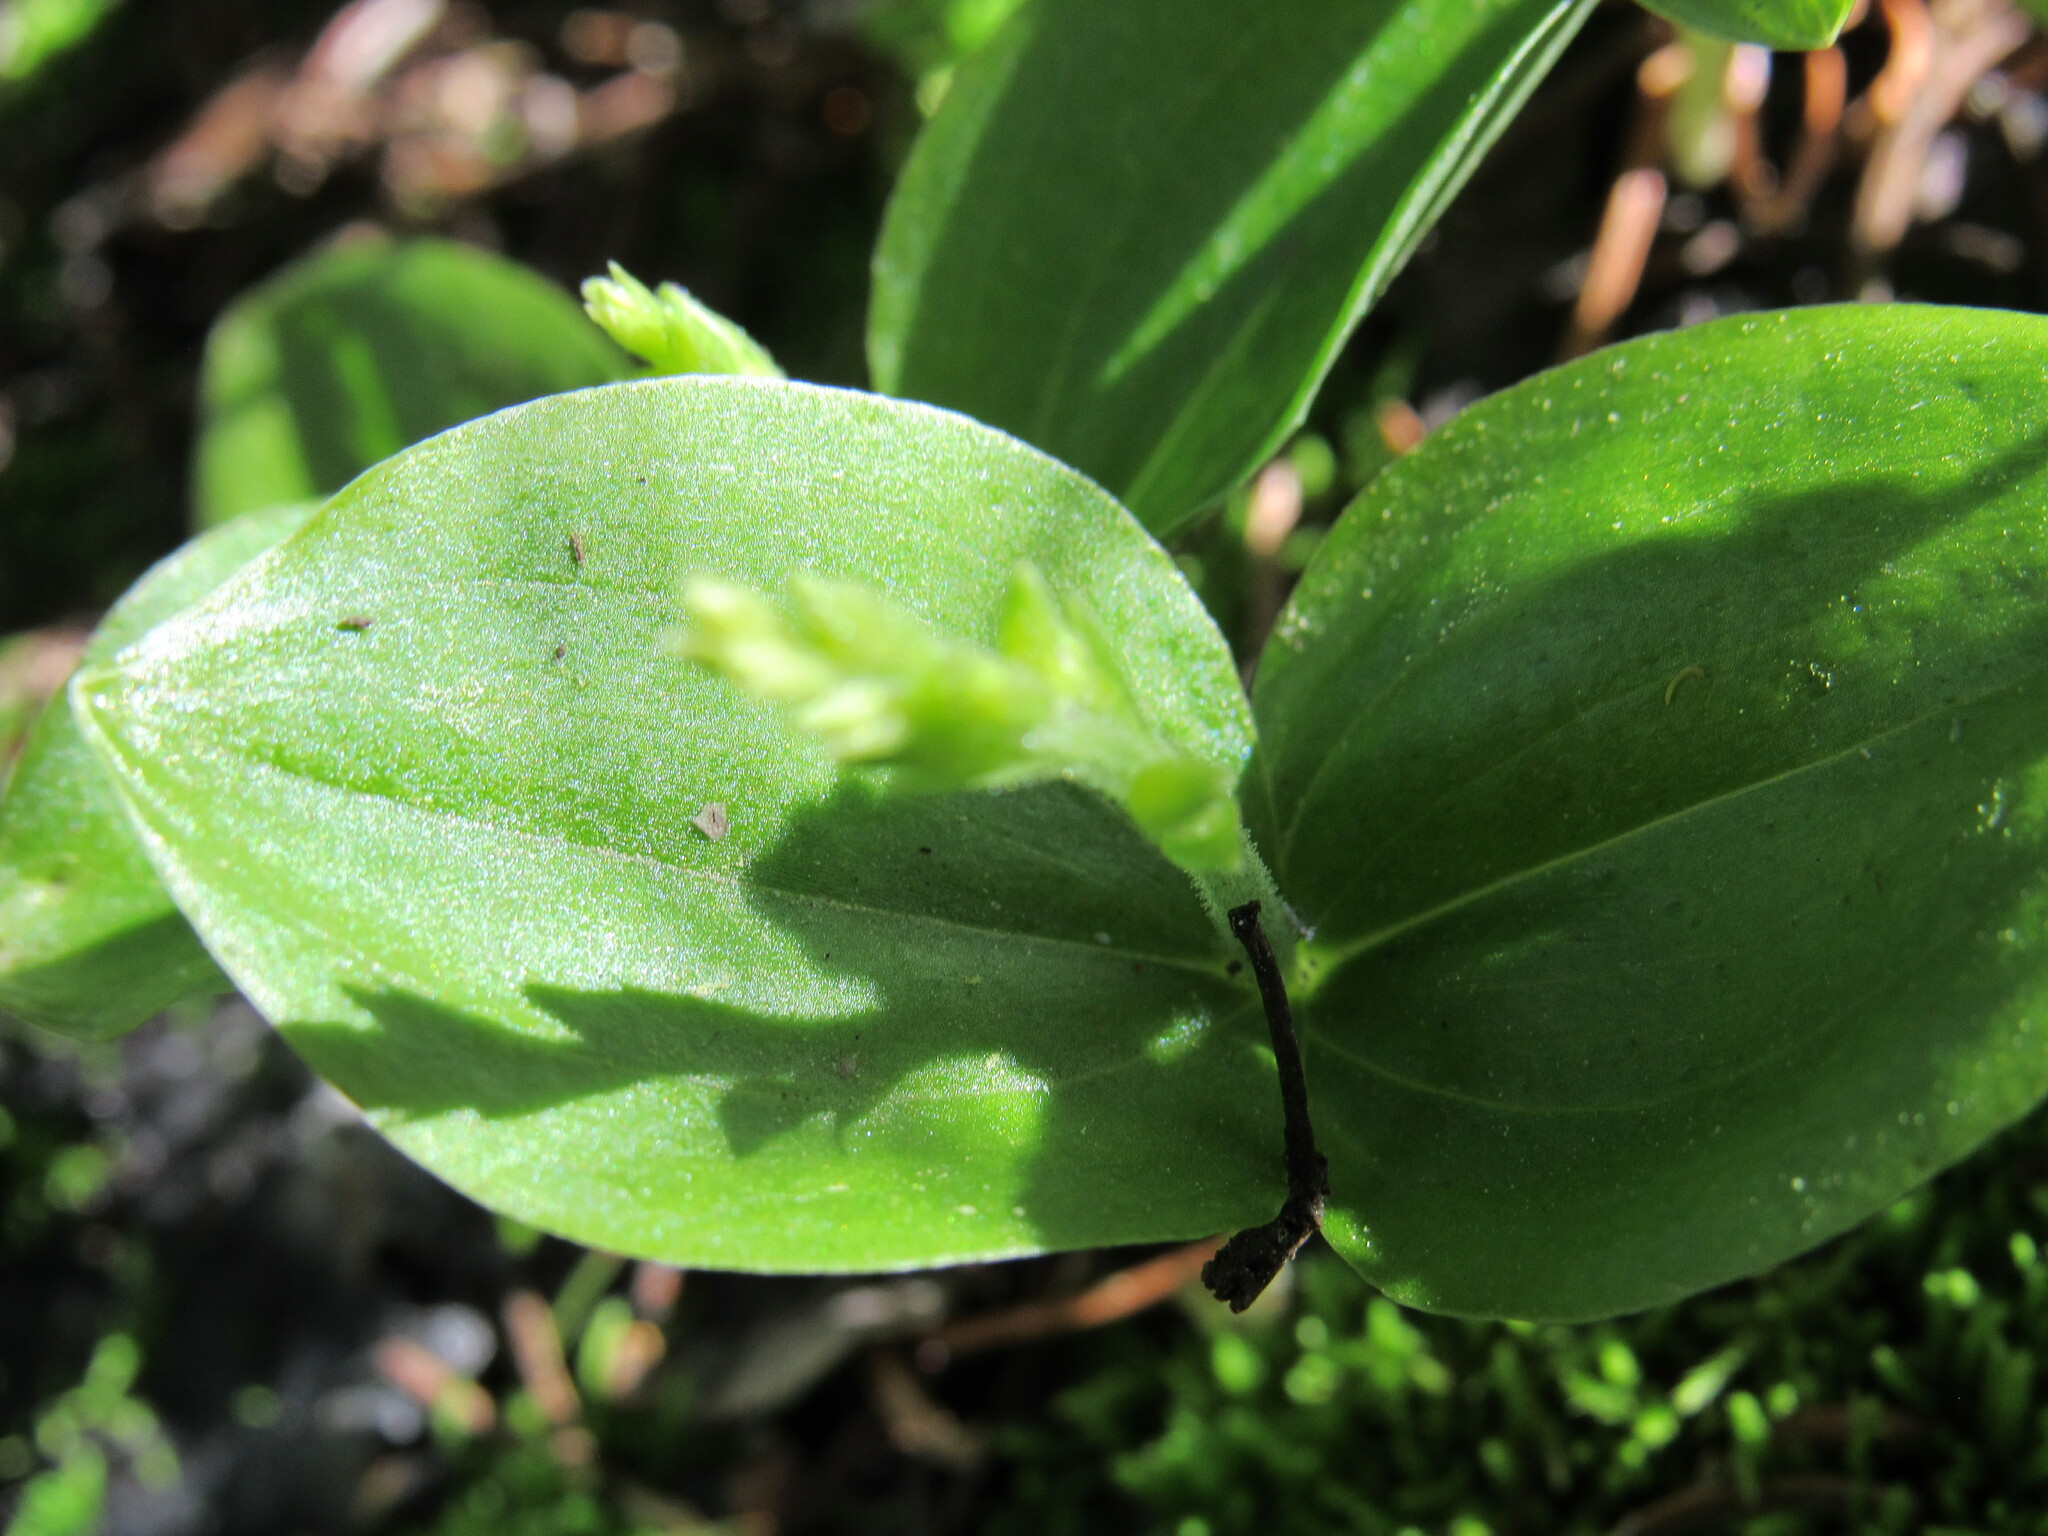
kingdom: Plantae
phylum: Tracheophyta
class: Liliopsida
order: Asparagales
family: Orchidaceae
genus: Neottia
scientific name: Neottia convallarioides
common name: Broadleaf twayblade
